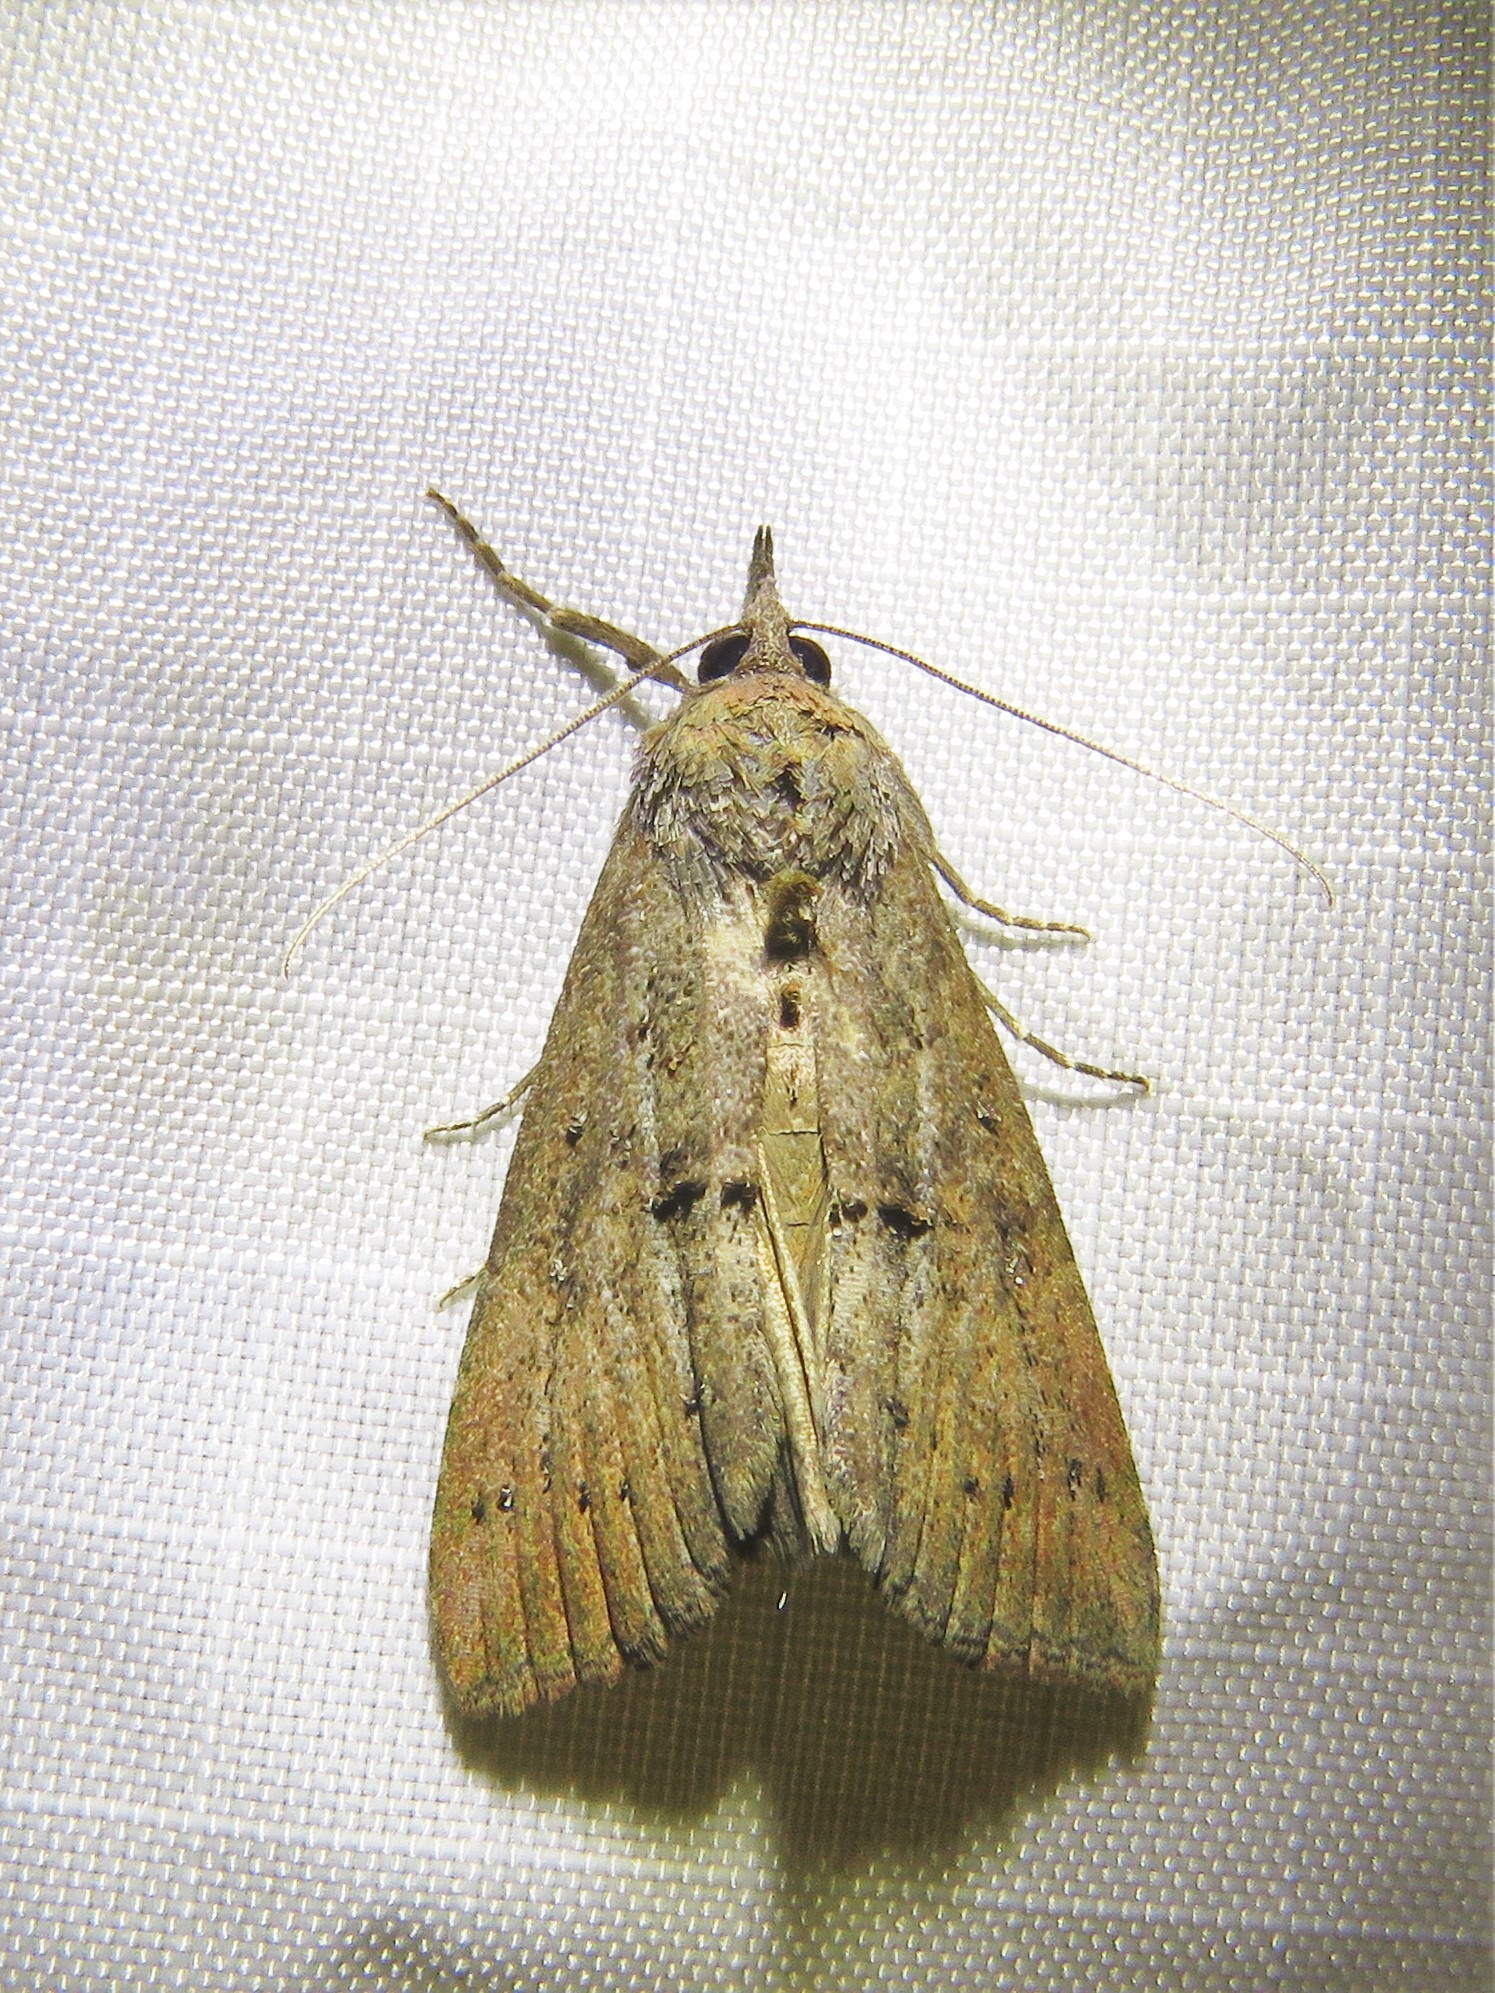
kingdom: Animalia
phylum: Arthropoda
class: Insecta
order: Lepidoptera
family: Erebidae
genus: Hypena
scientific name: Hypena scabra
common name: Green cloverworm
